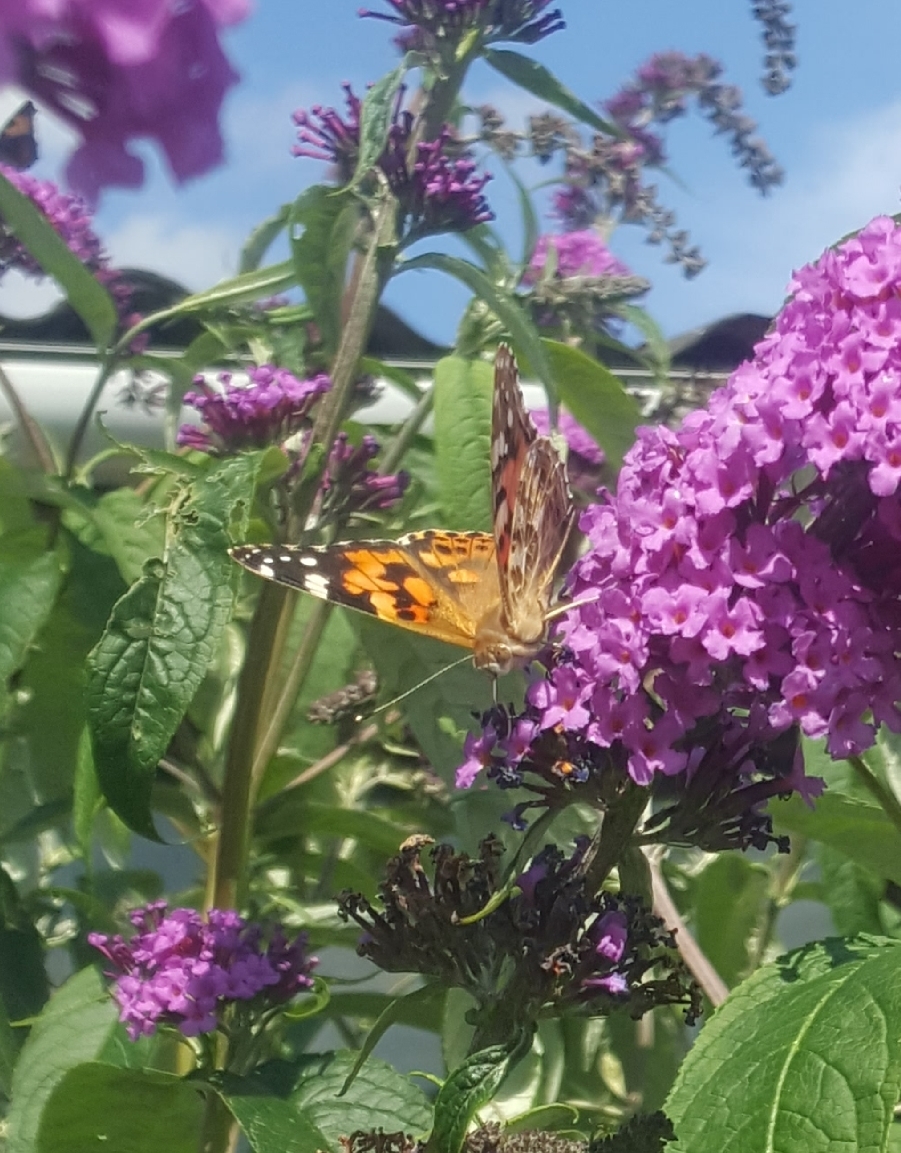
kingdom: Animalia
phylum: Arthropoda
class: Insecta
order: Lepidoptera
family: Nymphalidae
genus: Vanessa
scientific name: Vanessa cardui
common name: Painted lady
